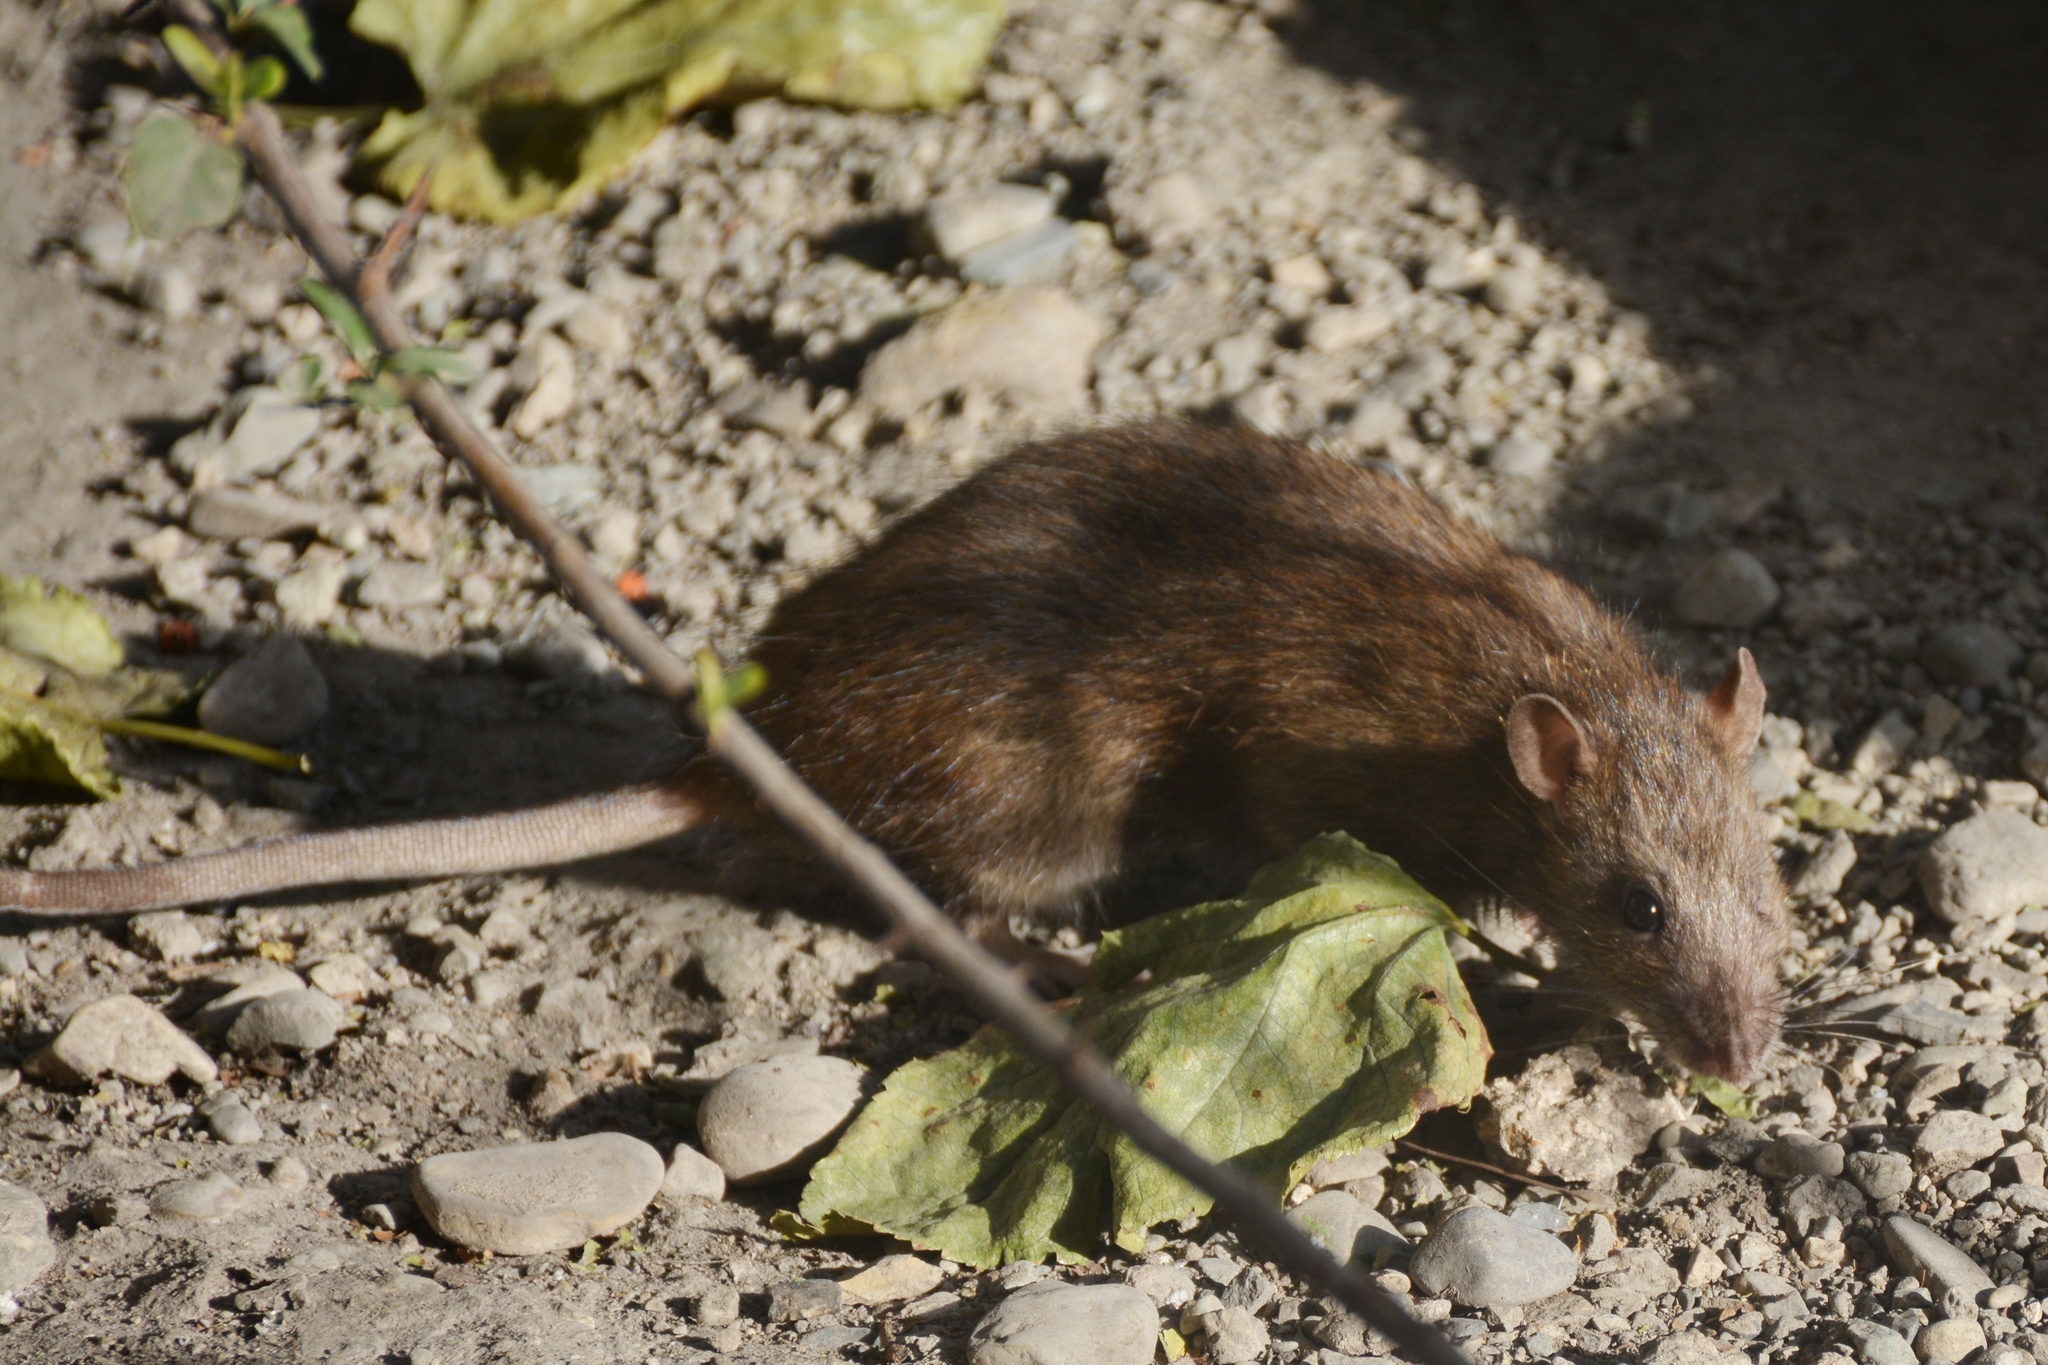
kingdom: Animalia
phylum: Chordata
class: Mammalia
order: Rodentia
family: Muridae
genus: Rattus
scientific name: Rattus norvegicus
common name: Brown rat
